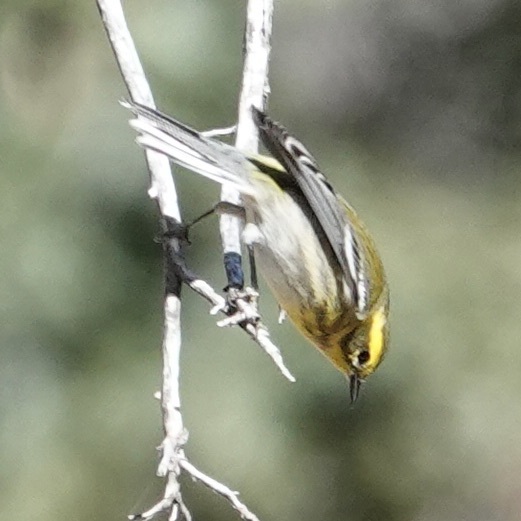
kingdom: Animalia
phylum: Chordata
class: Aves
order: Passeriformes
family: Parulidae
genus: Setophaga
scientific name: Setophaga townsendi
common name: Townsend's warbler
